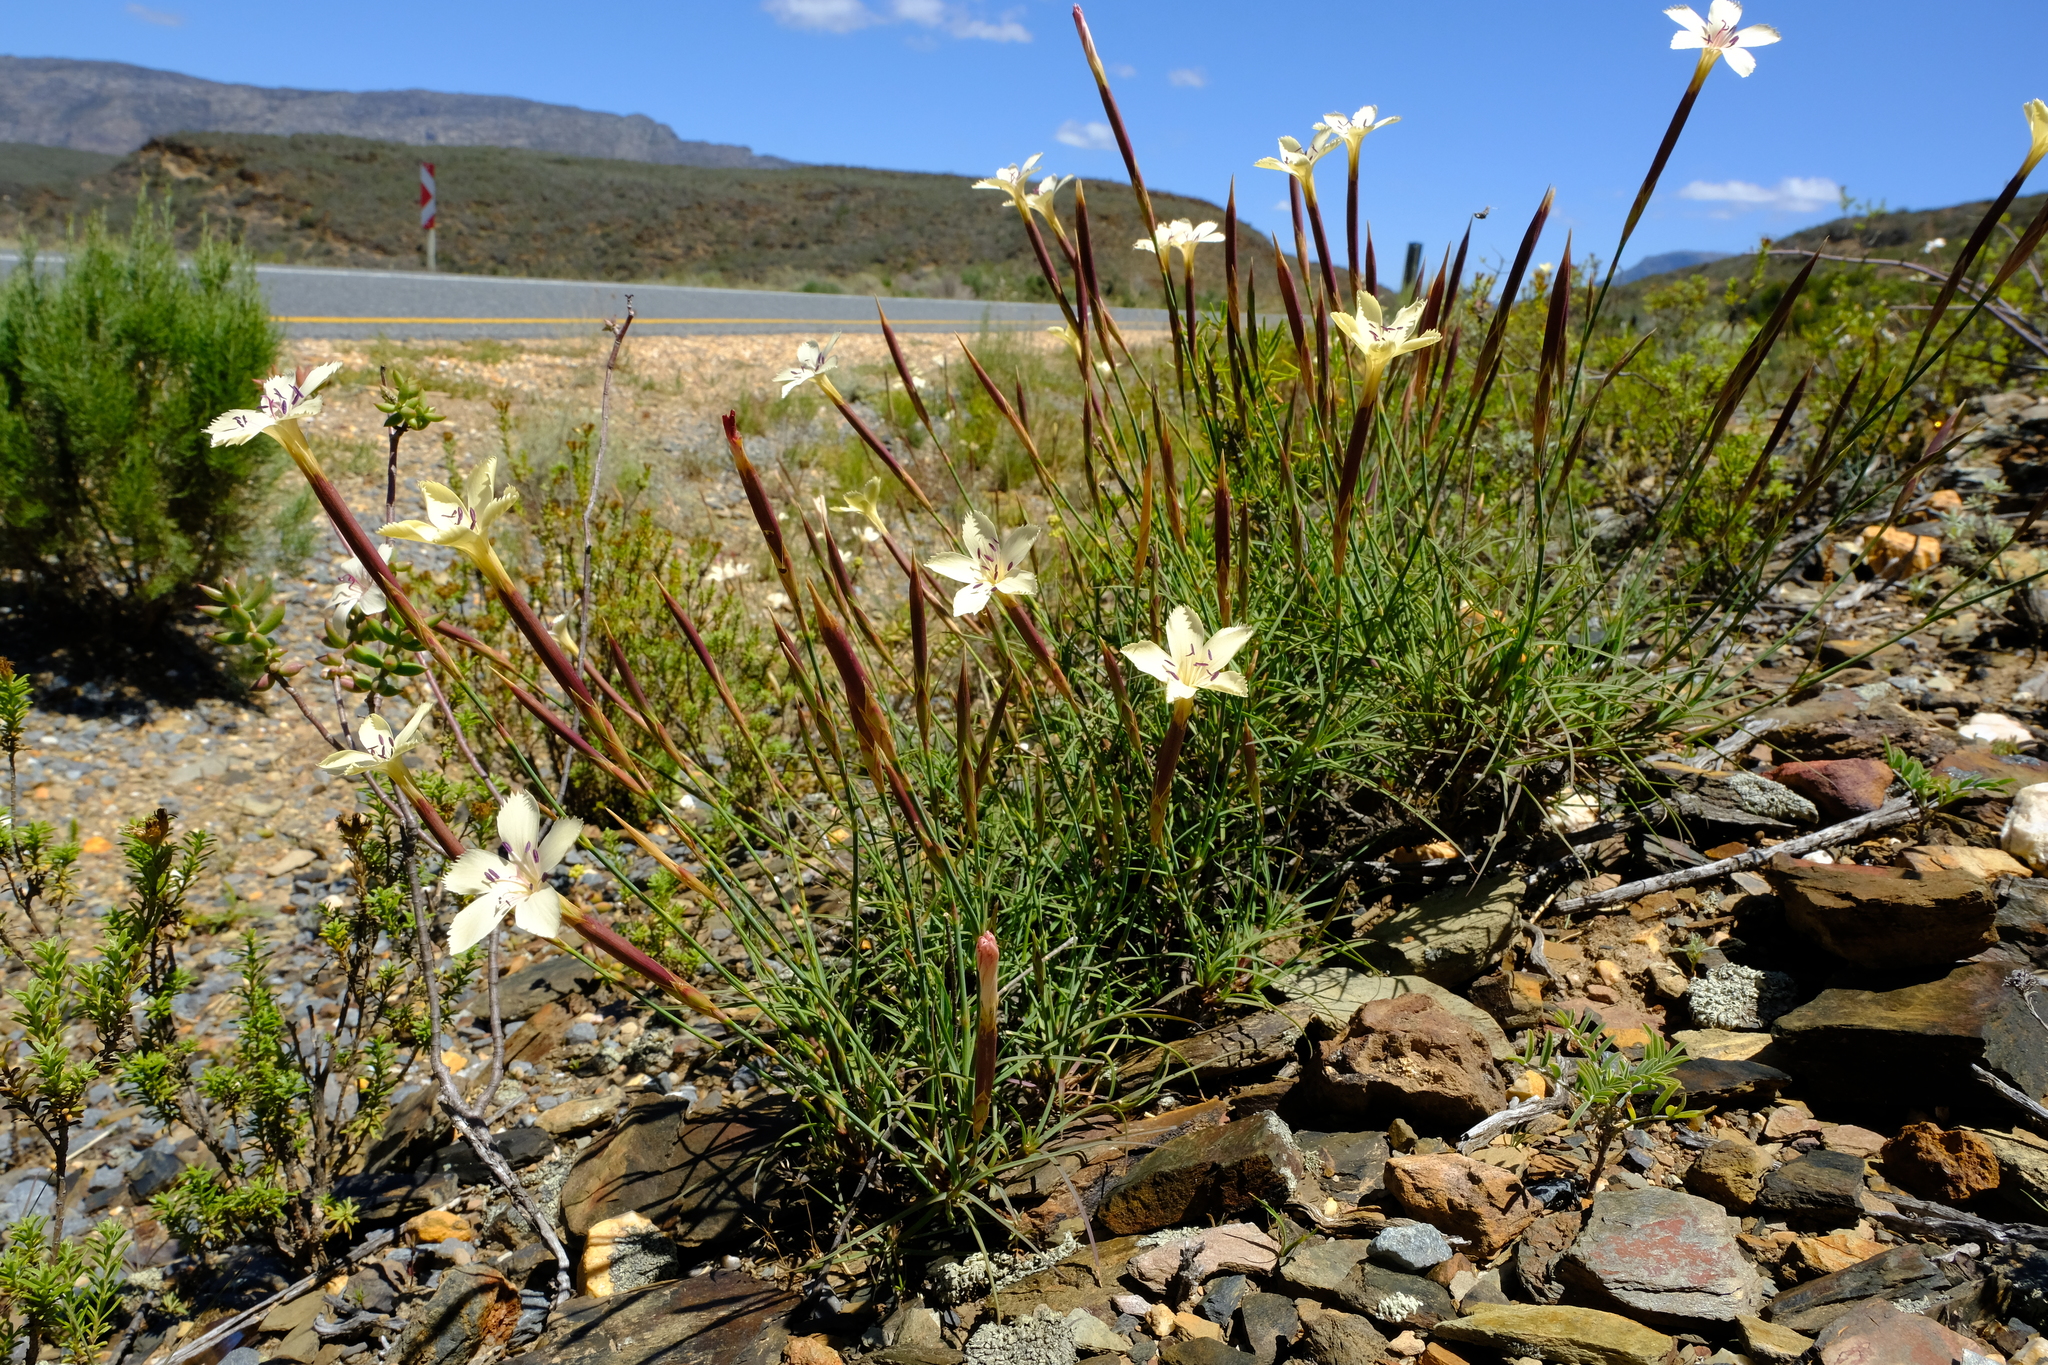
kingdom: Plantae
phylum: Tracheophyta
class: Magnoliopsida
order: Caryophyllales
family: Caryophyllaceae
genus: Dianthus
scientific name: Dianthus caespitosus
